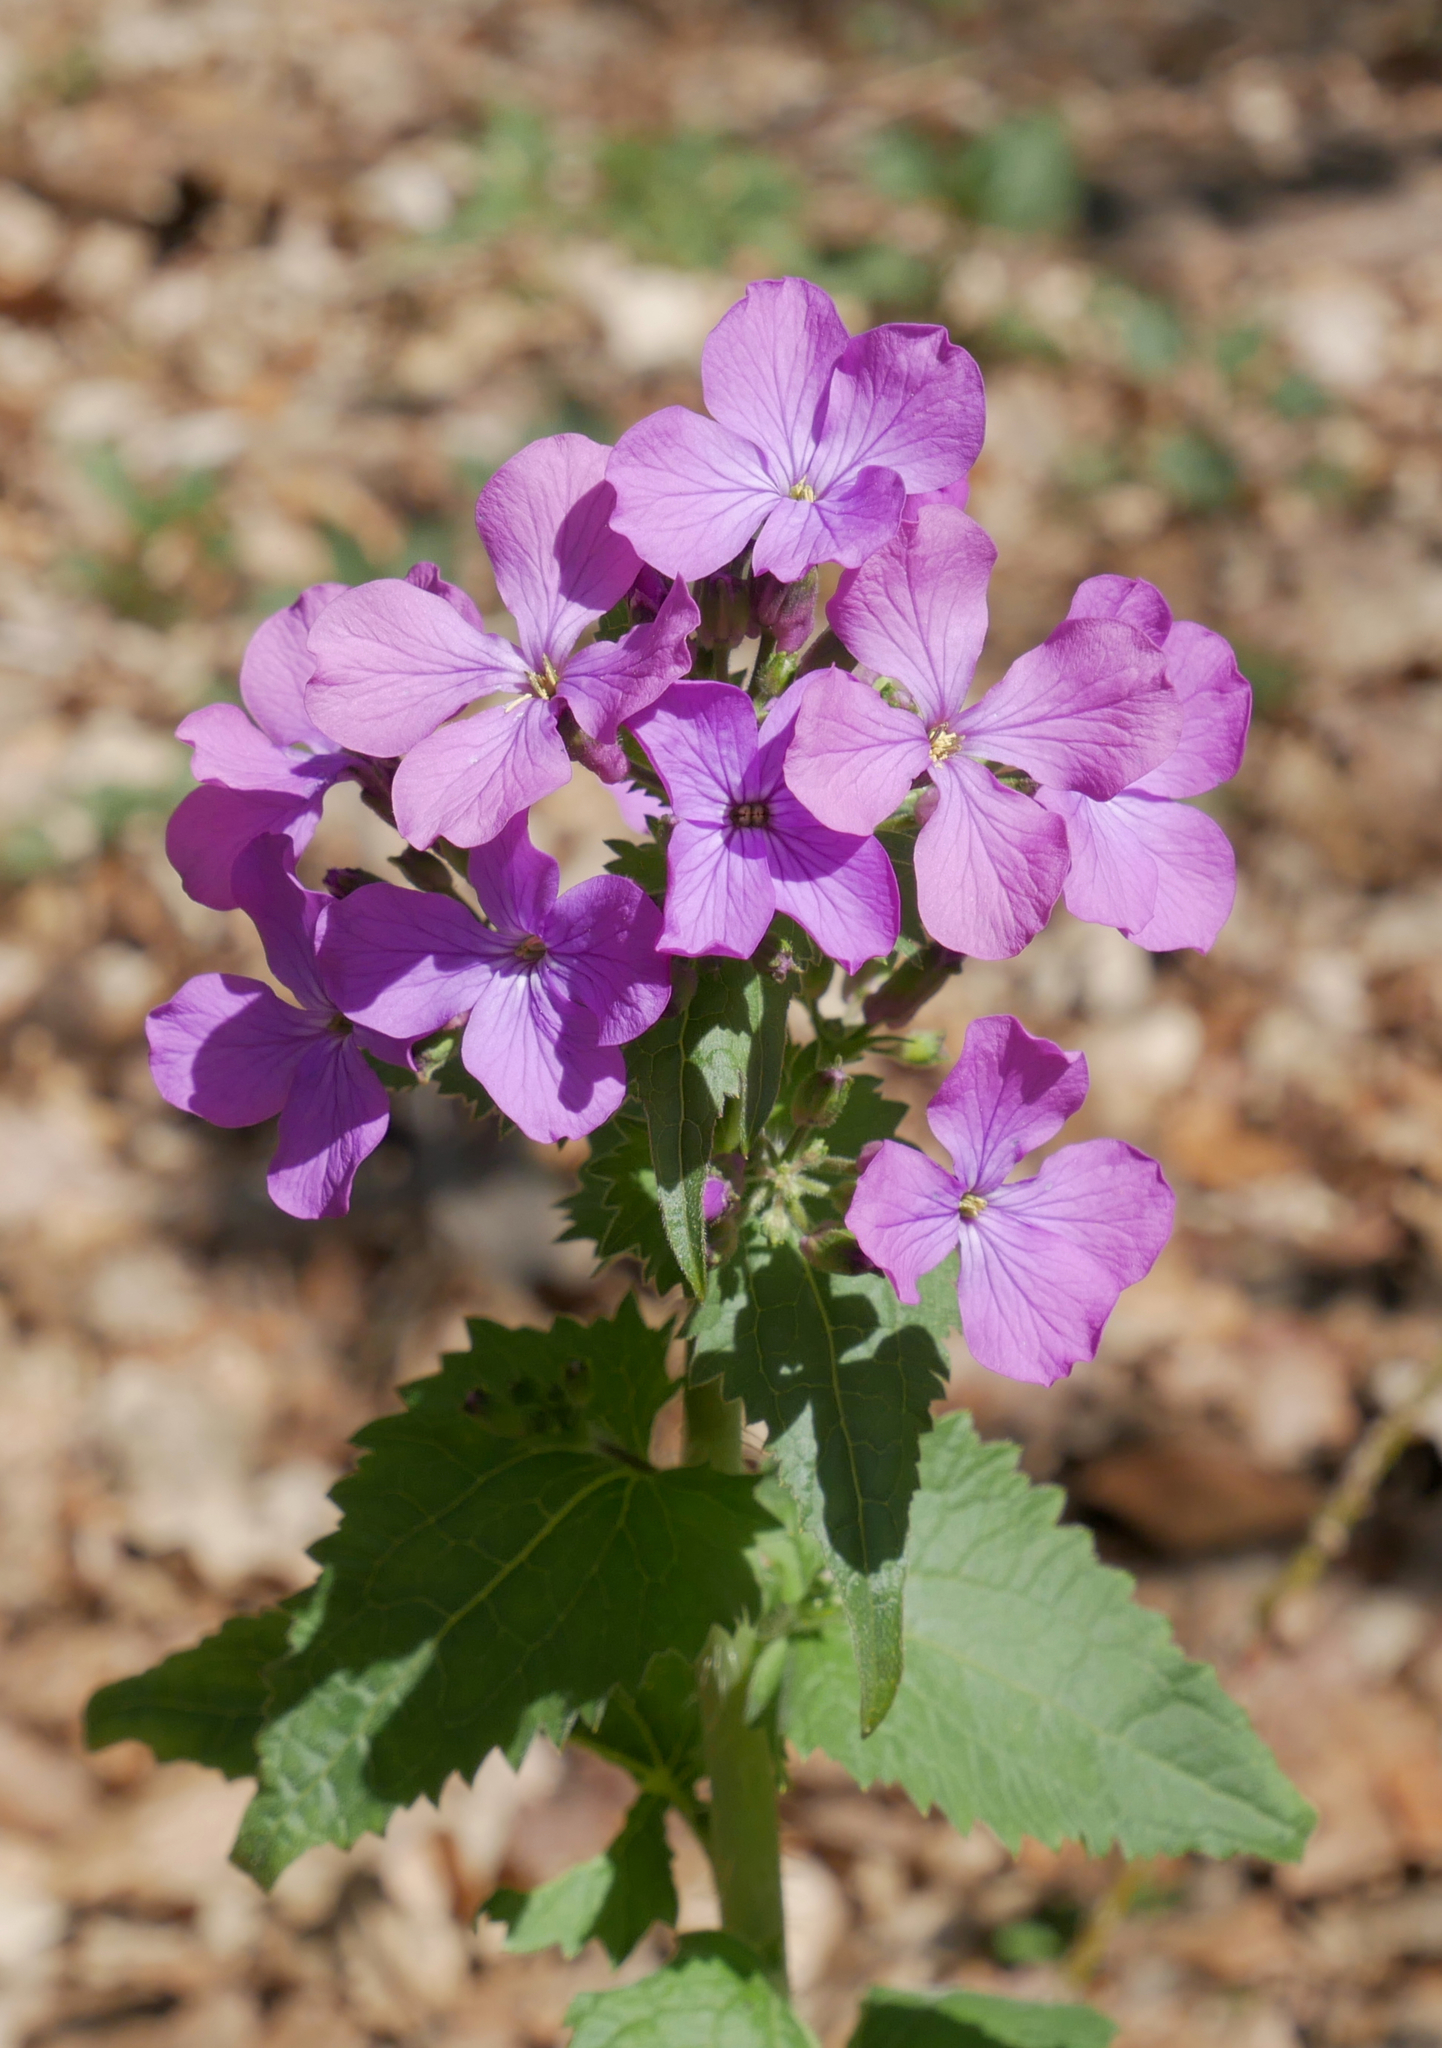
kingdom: Plantae
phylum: Tracheophyta
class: Magnoliopsida
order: Brassicales
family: Brassicaceae
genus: Lunaria
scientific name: Lunaria annua
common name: Honesty
